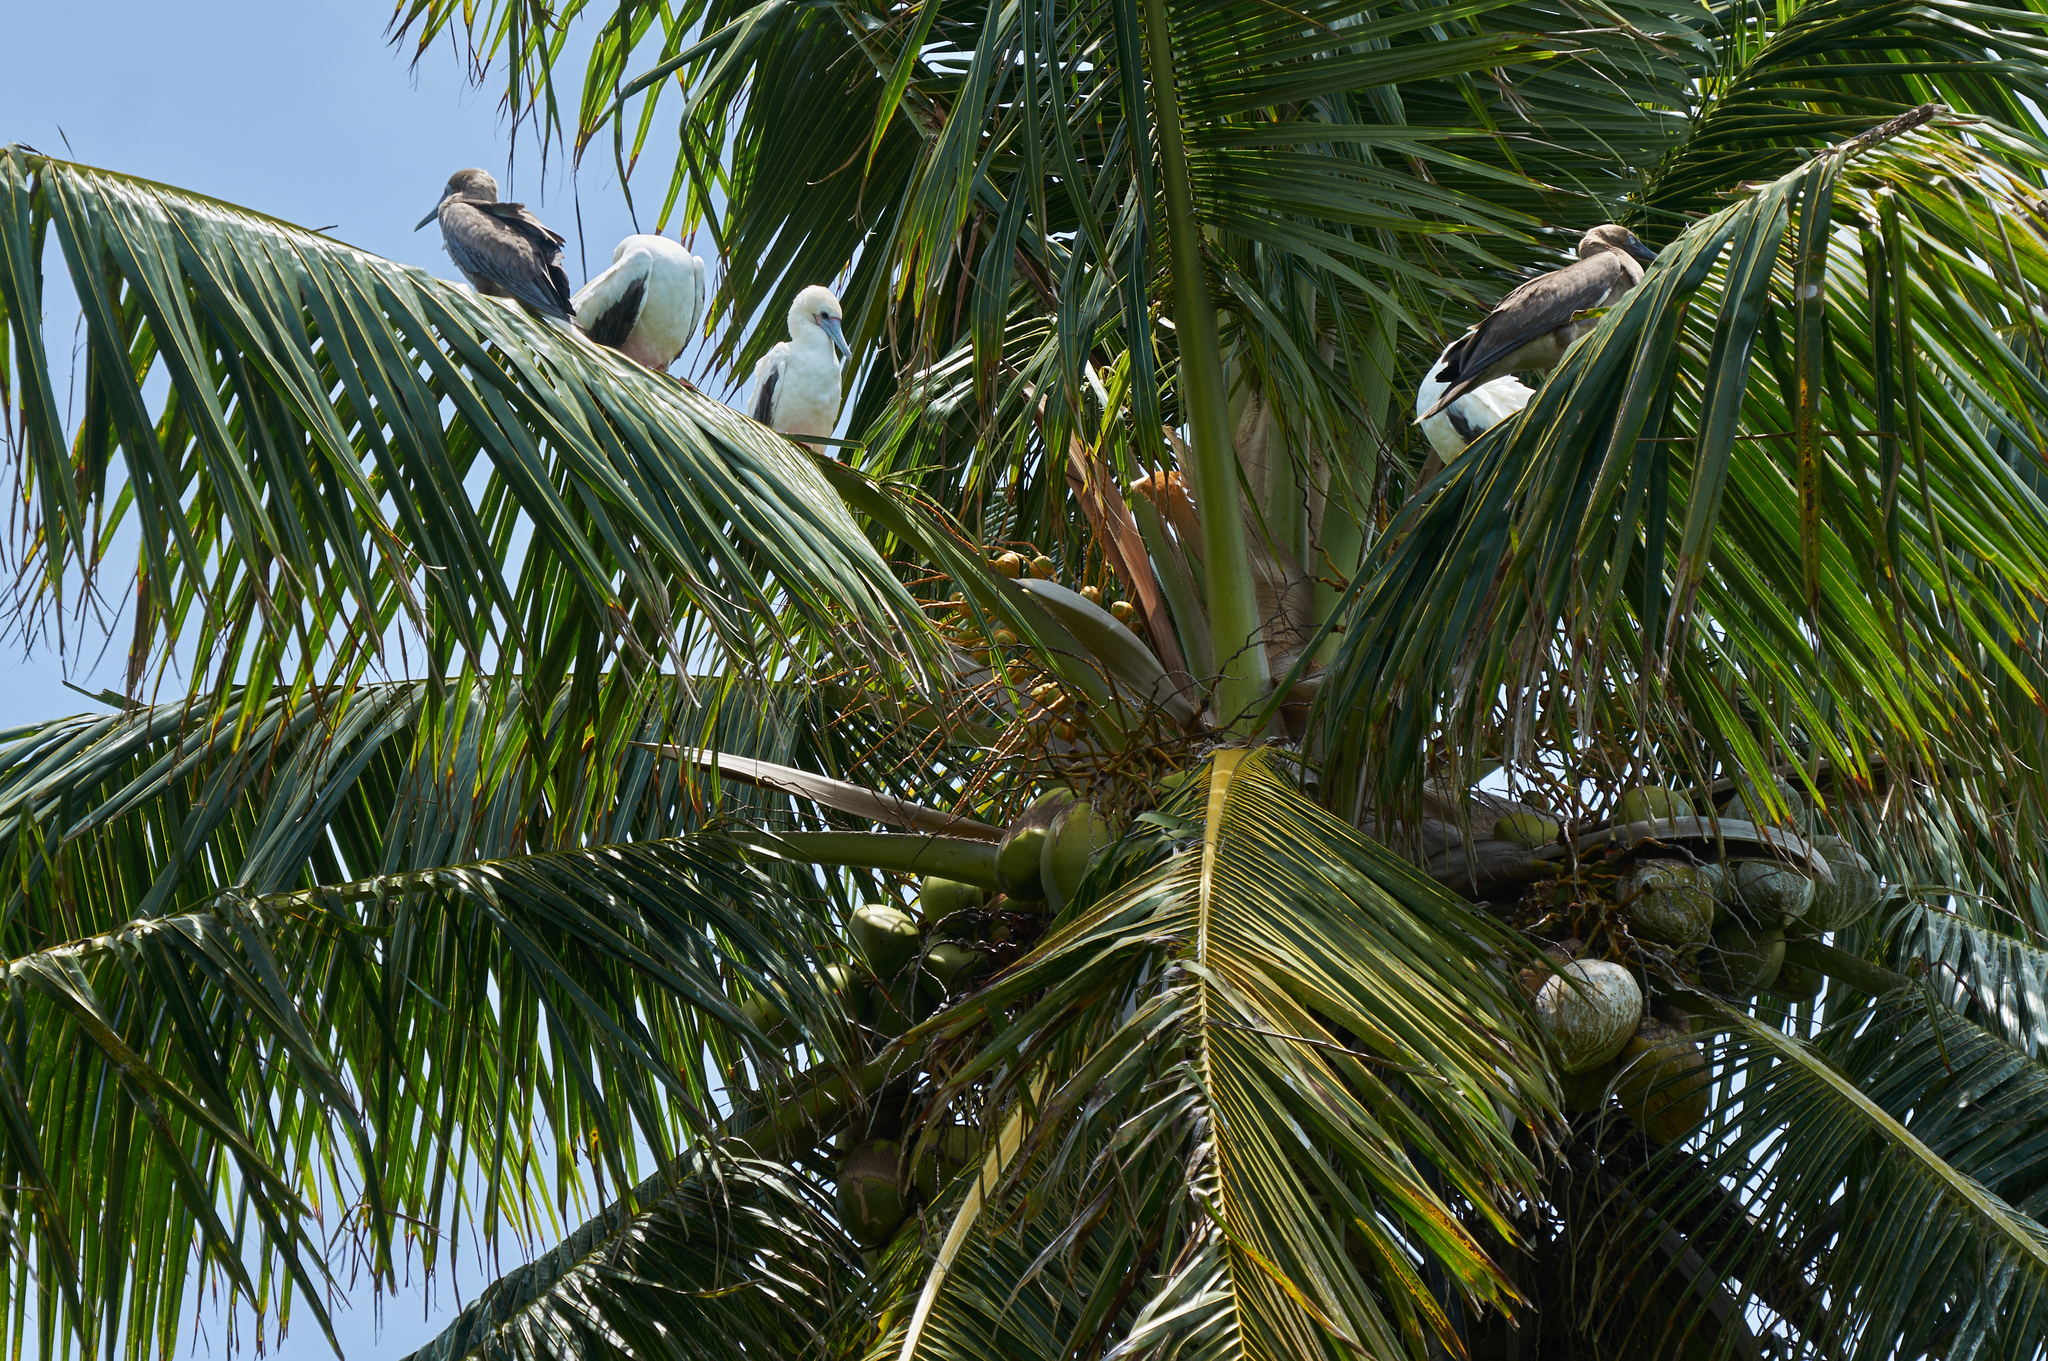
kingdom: Animalia
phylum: Chordata
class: Aves
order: Suliformes
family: Sulidae
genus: Sula
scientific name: Sula sula
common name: Red-footed booby
